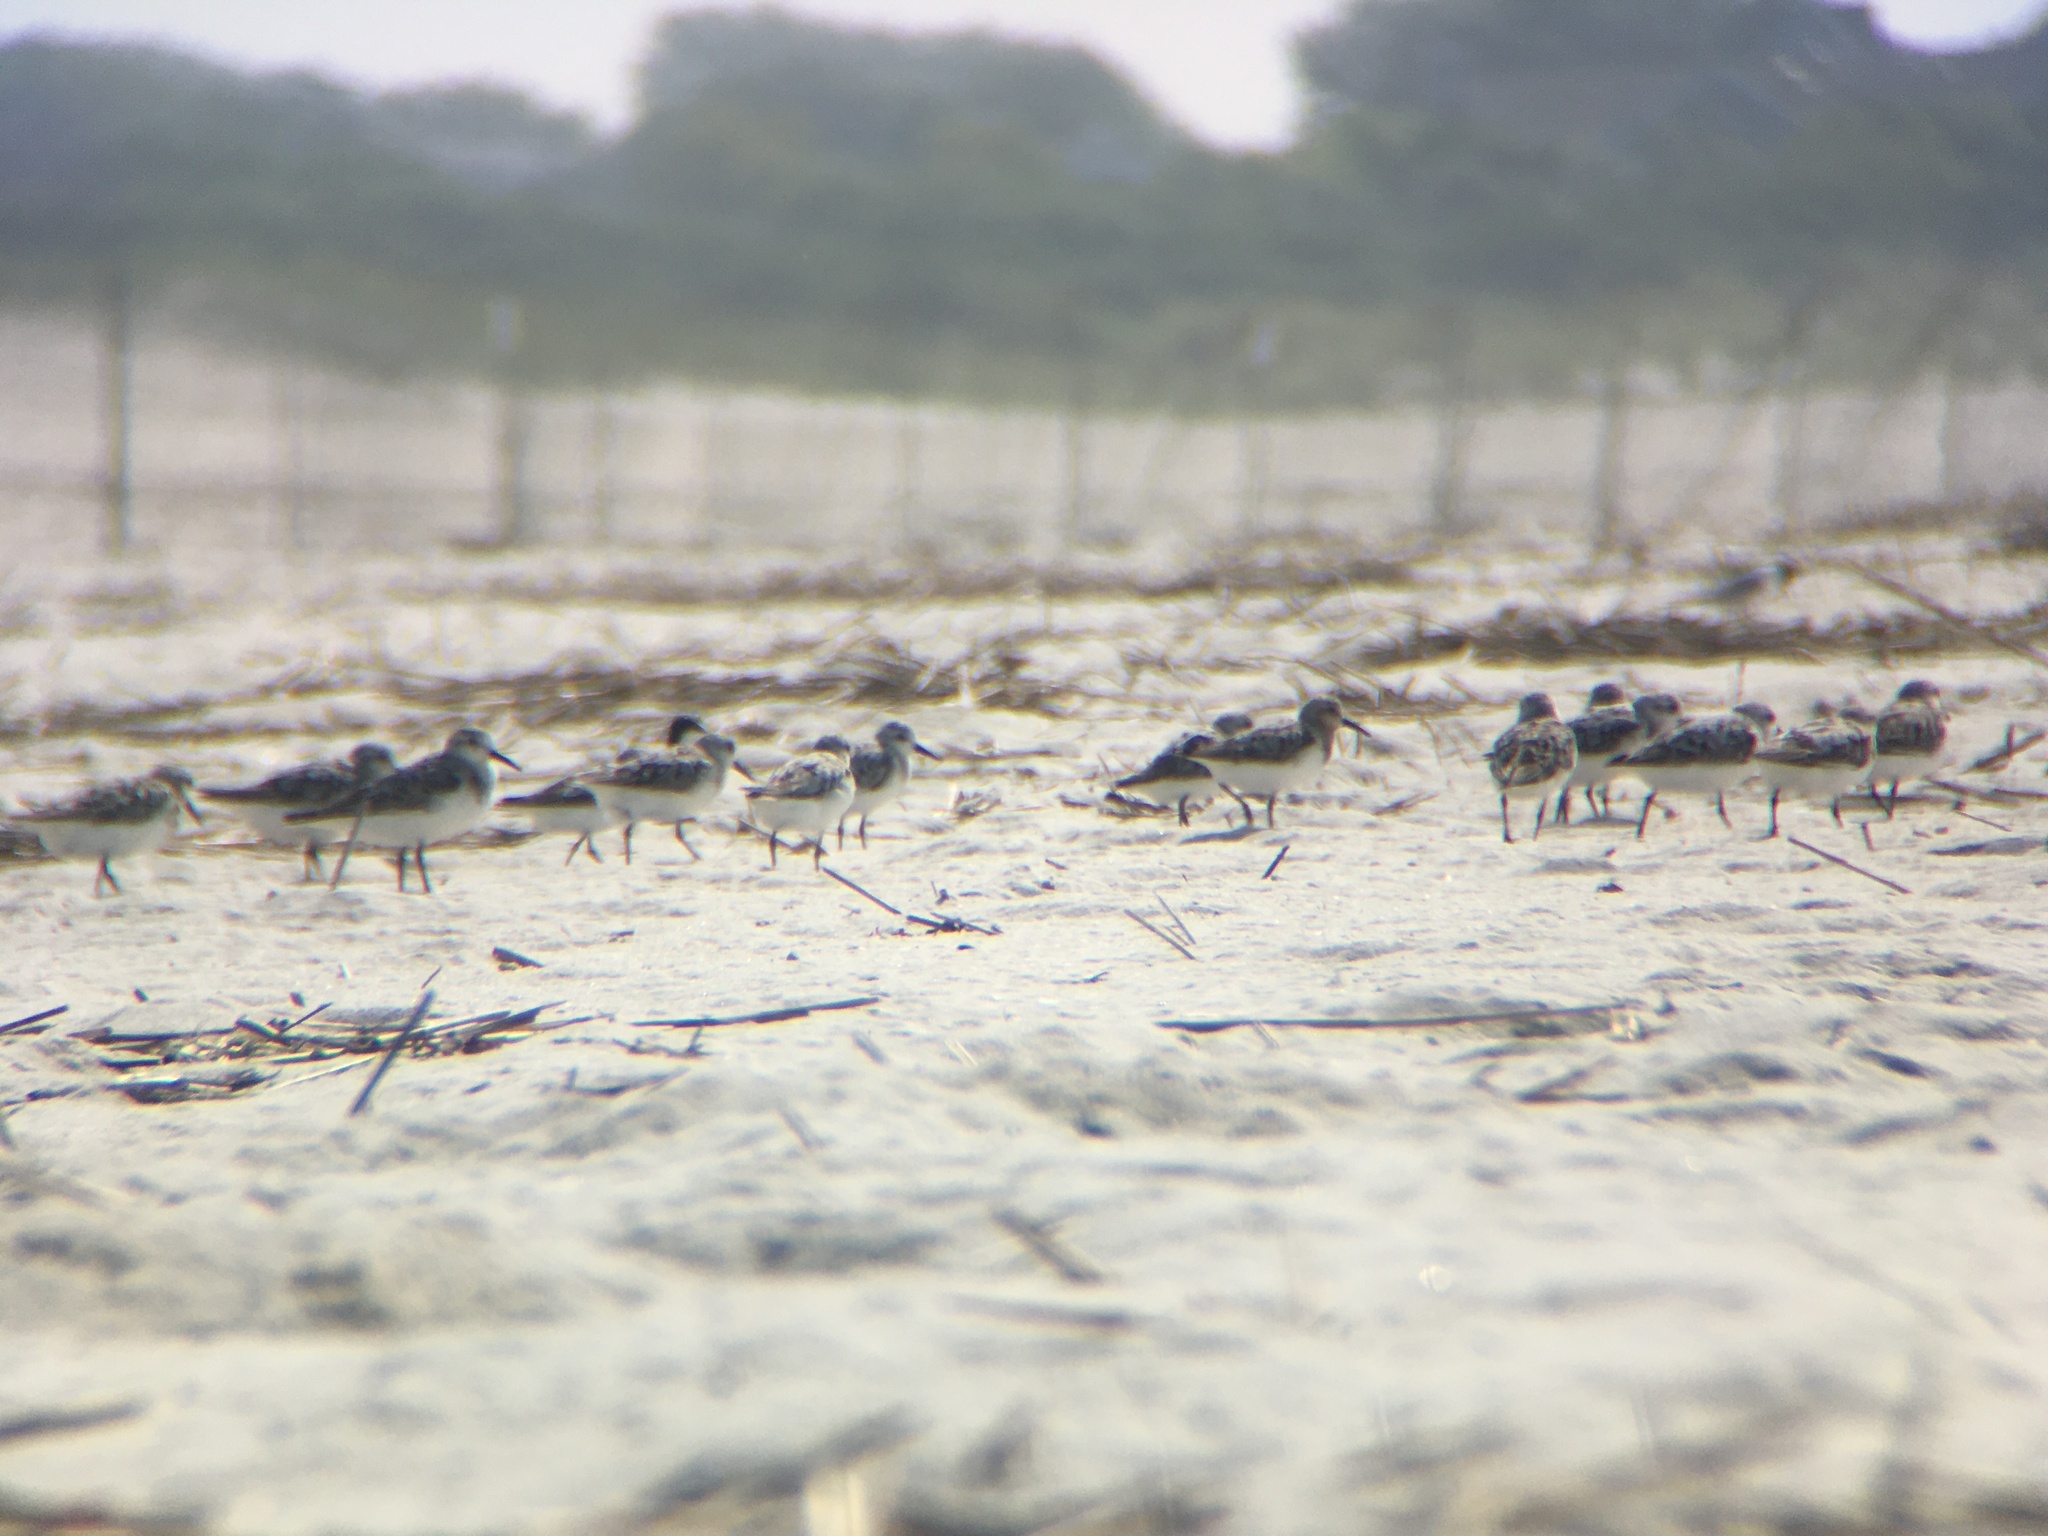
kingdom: Animalia
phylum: Chordata
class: Aves
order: Charadriiformes
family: Scolopacidae
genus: Calidris
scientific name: Calidris alba
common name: Sanderling
